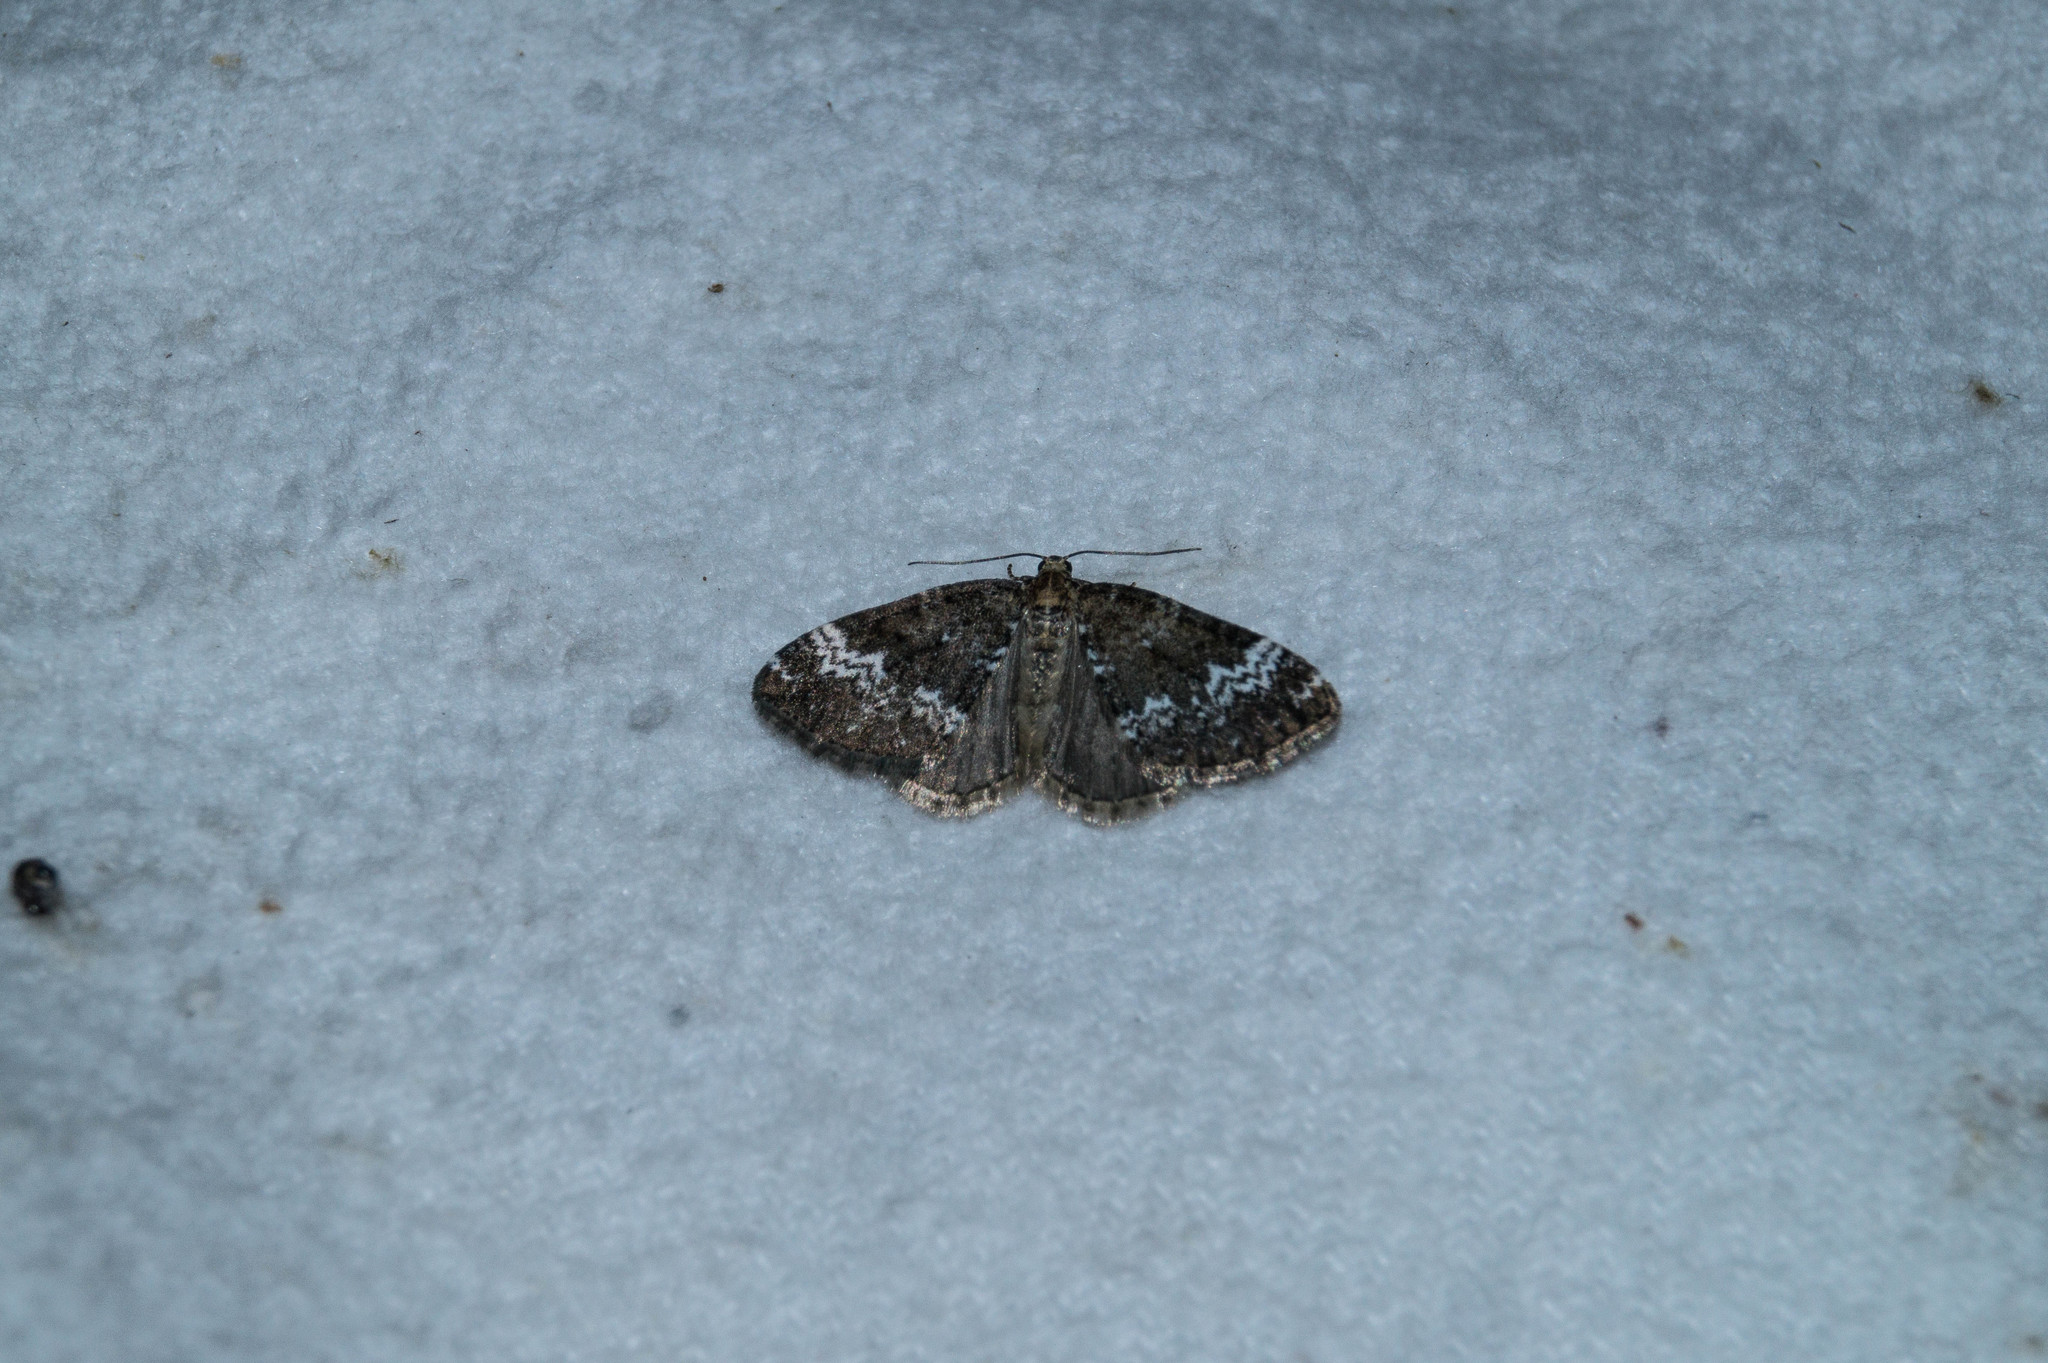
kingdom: Animalia
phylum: Arthropoda
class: Insecta
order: Lepidoptera
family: Geometridae
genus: Perizoma
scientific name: Perizoma alchemillata
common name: Small rivulet
